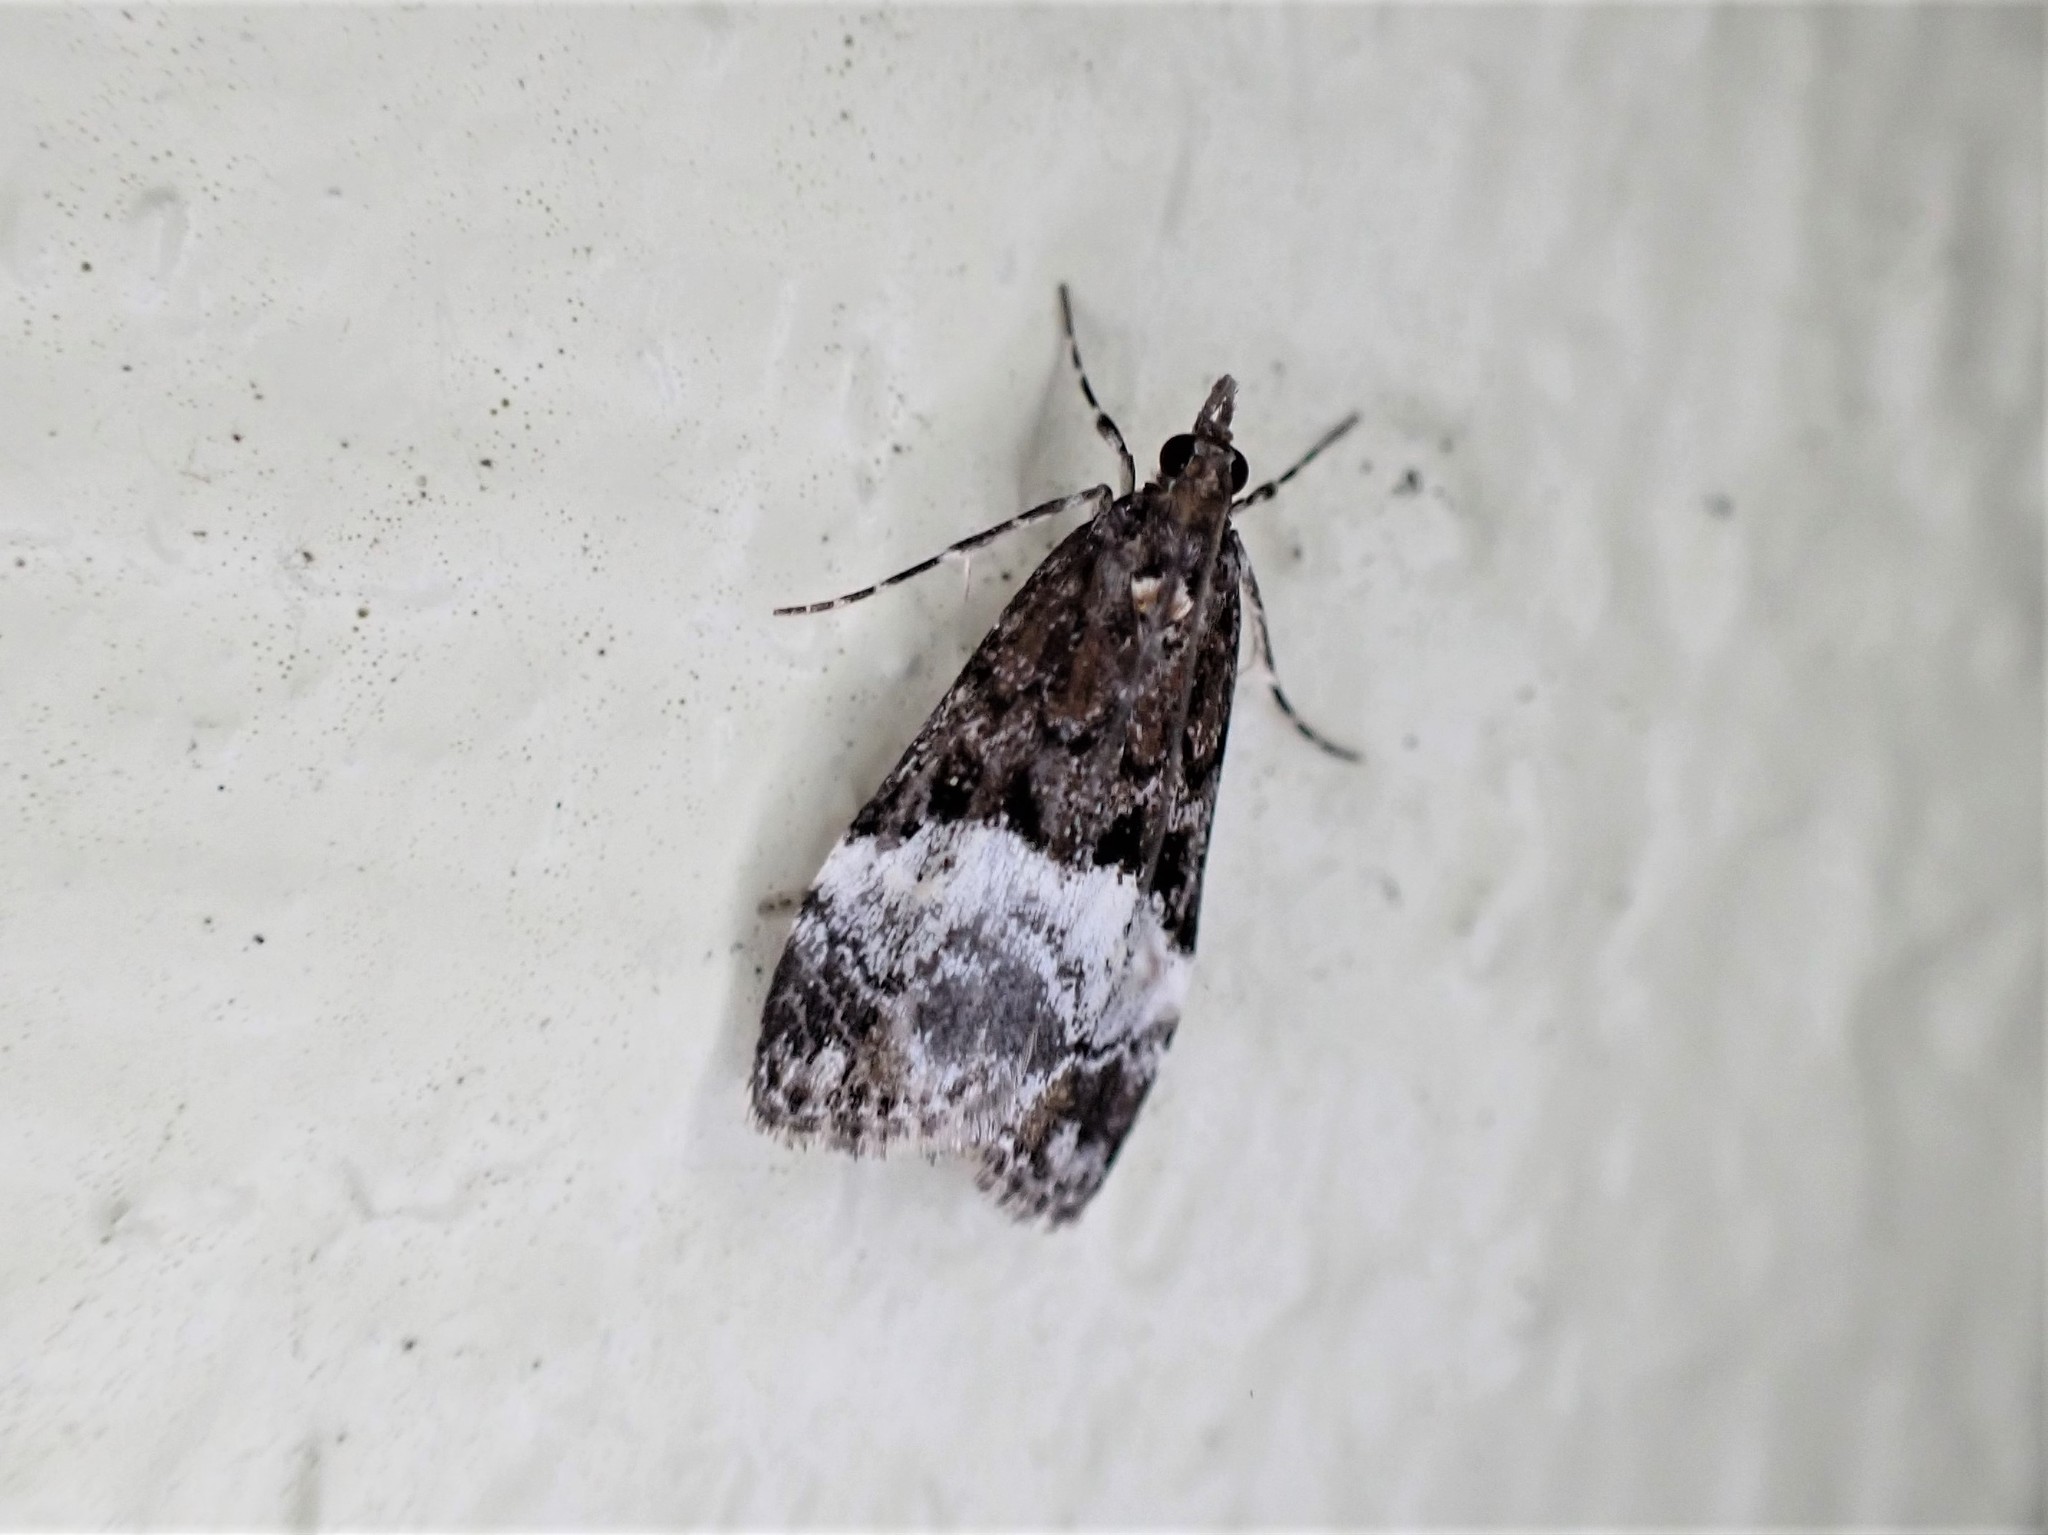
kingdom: Animalia
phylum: Arthropoda
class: Insecta
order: Lepidoptera
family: Crambidae
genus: Scoparia
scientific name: Scoparia minusculalis
